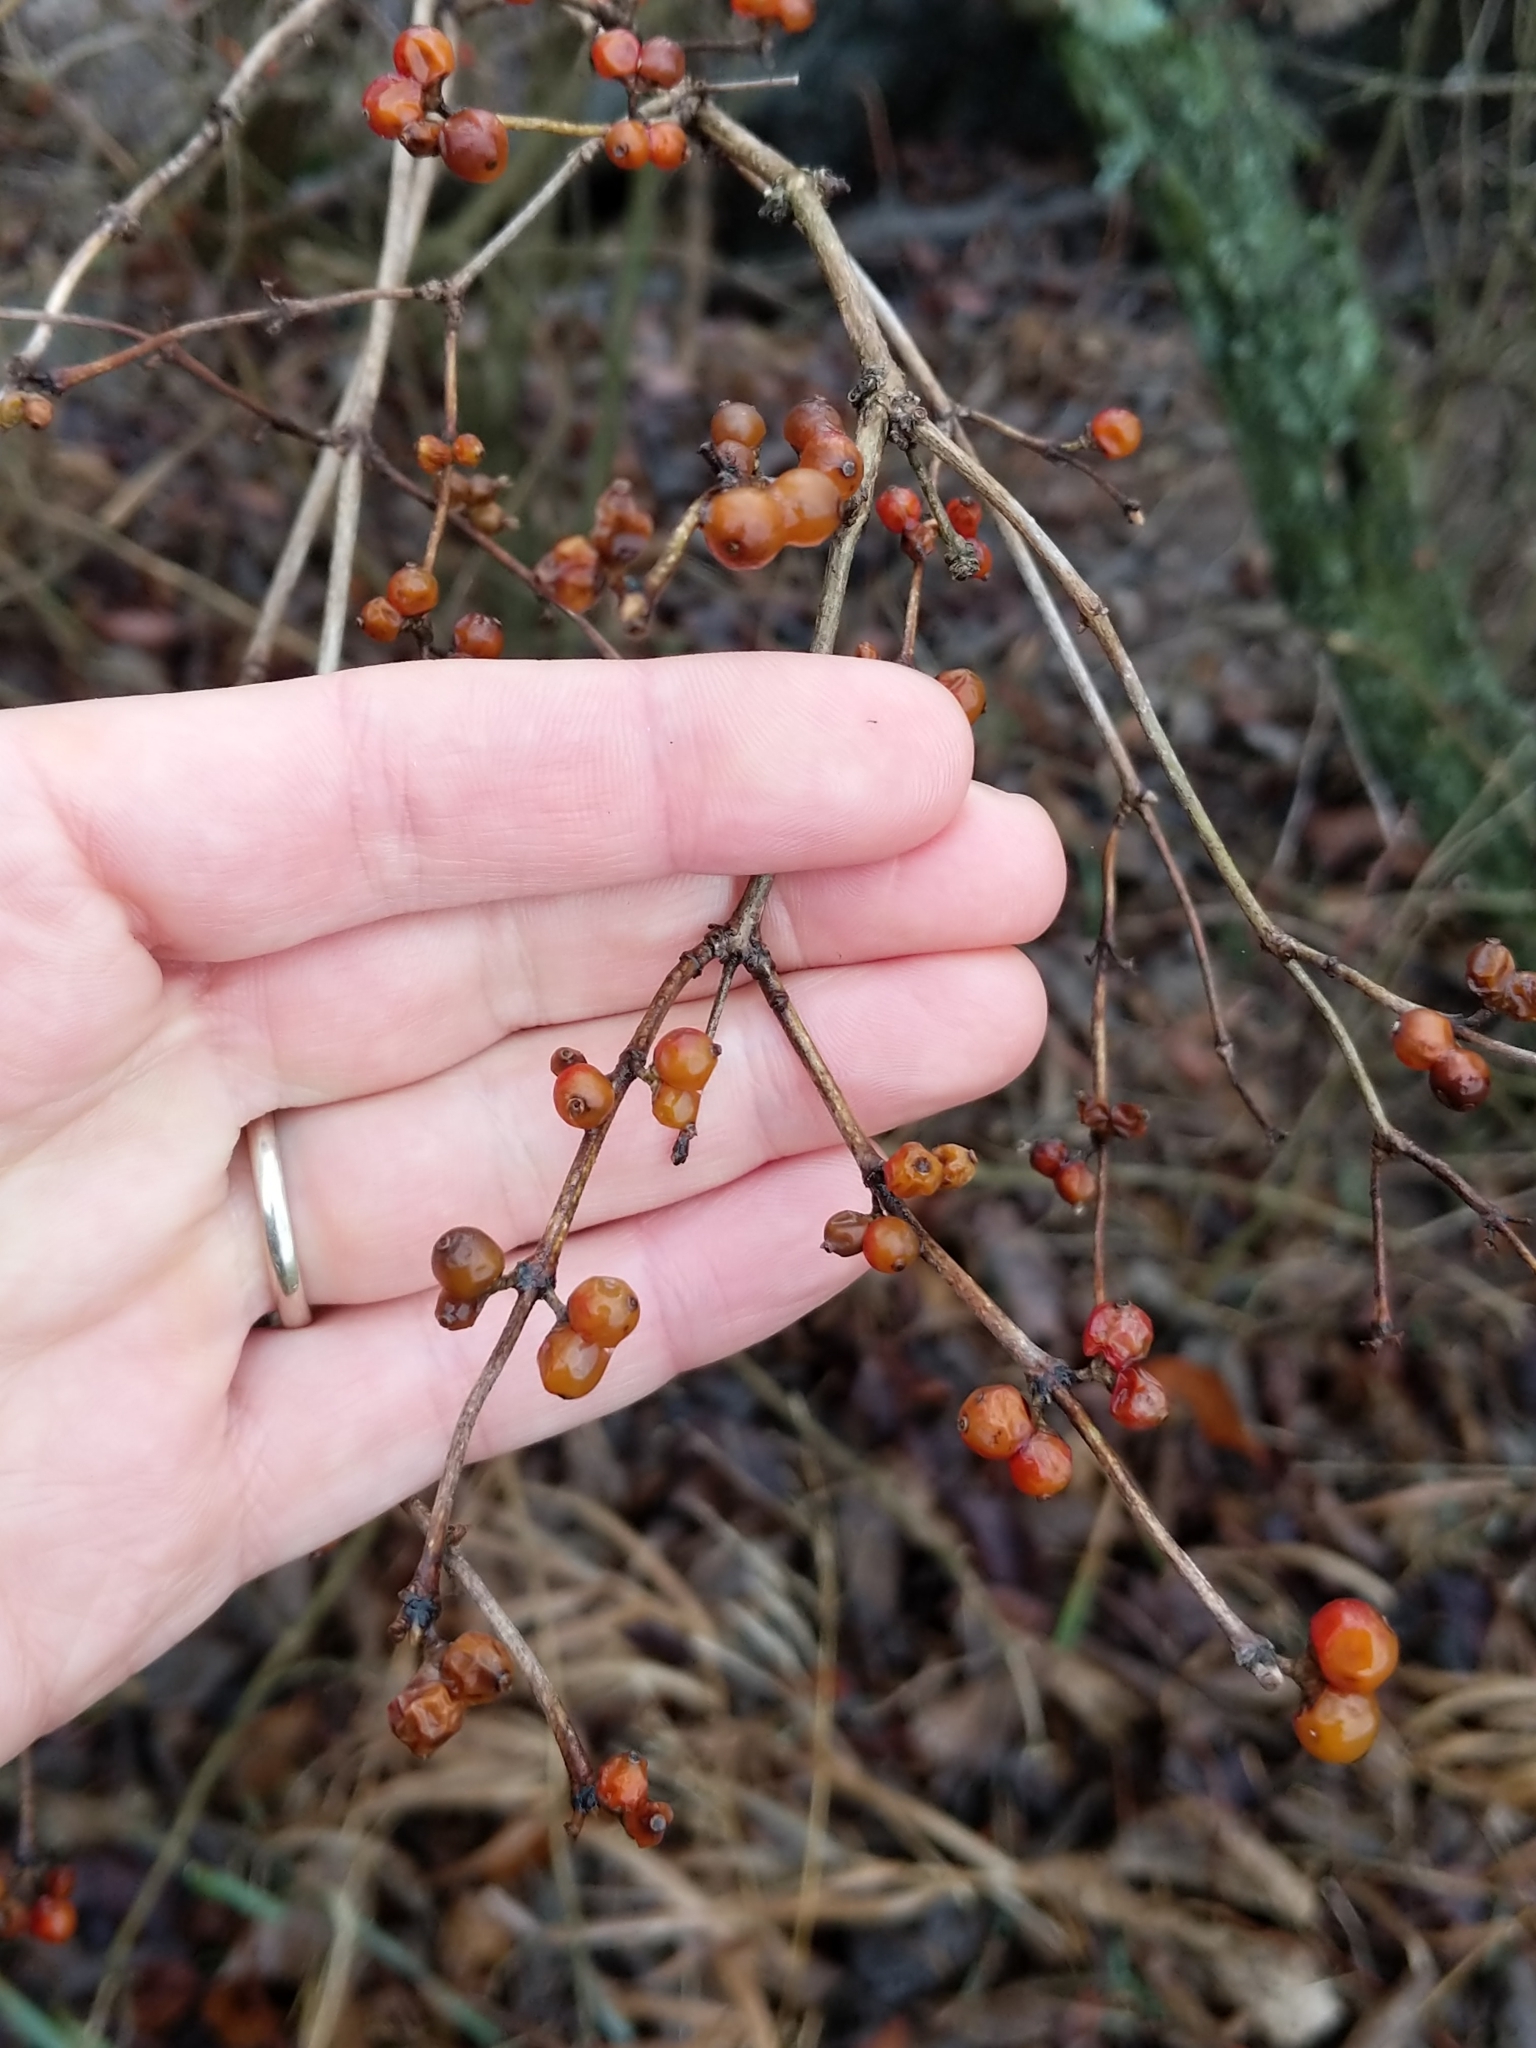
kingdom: Plantae
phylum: Tracheophyta
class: Magnoliopsida
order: Dipsacales
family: Caprifoliaceae
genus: Lonicera
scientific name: Lonicera maackii
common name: Amur honeysuckle
